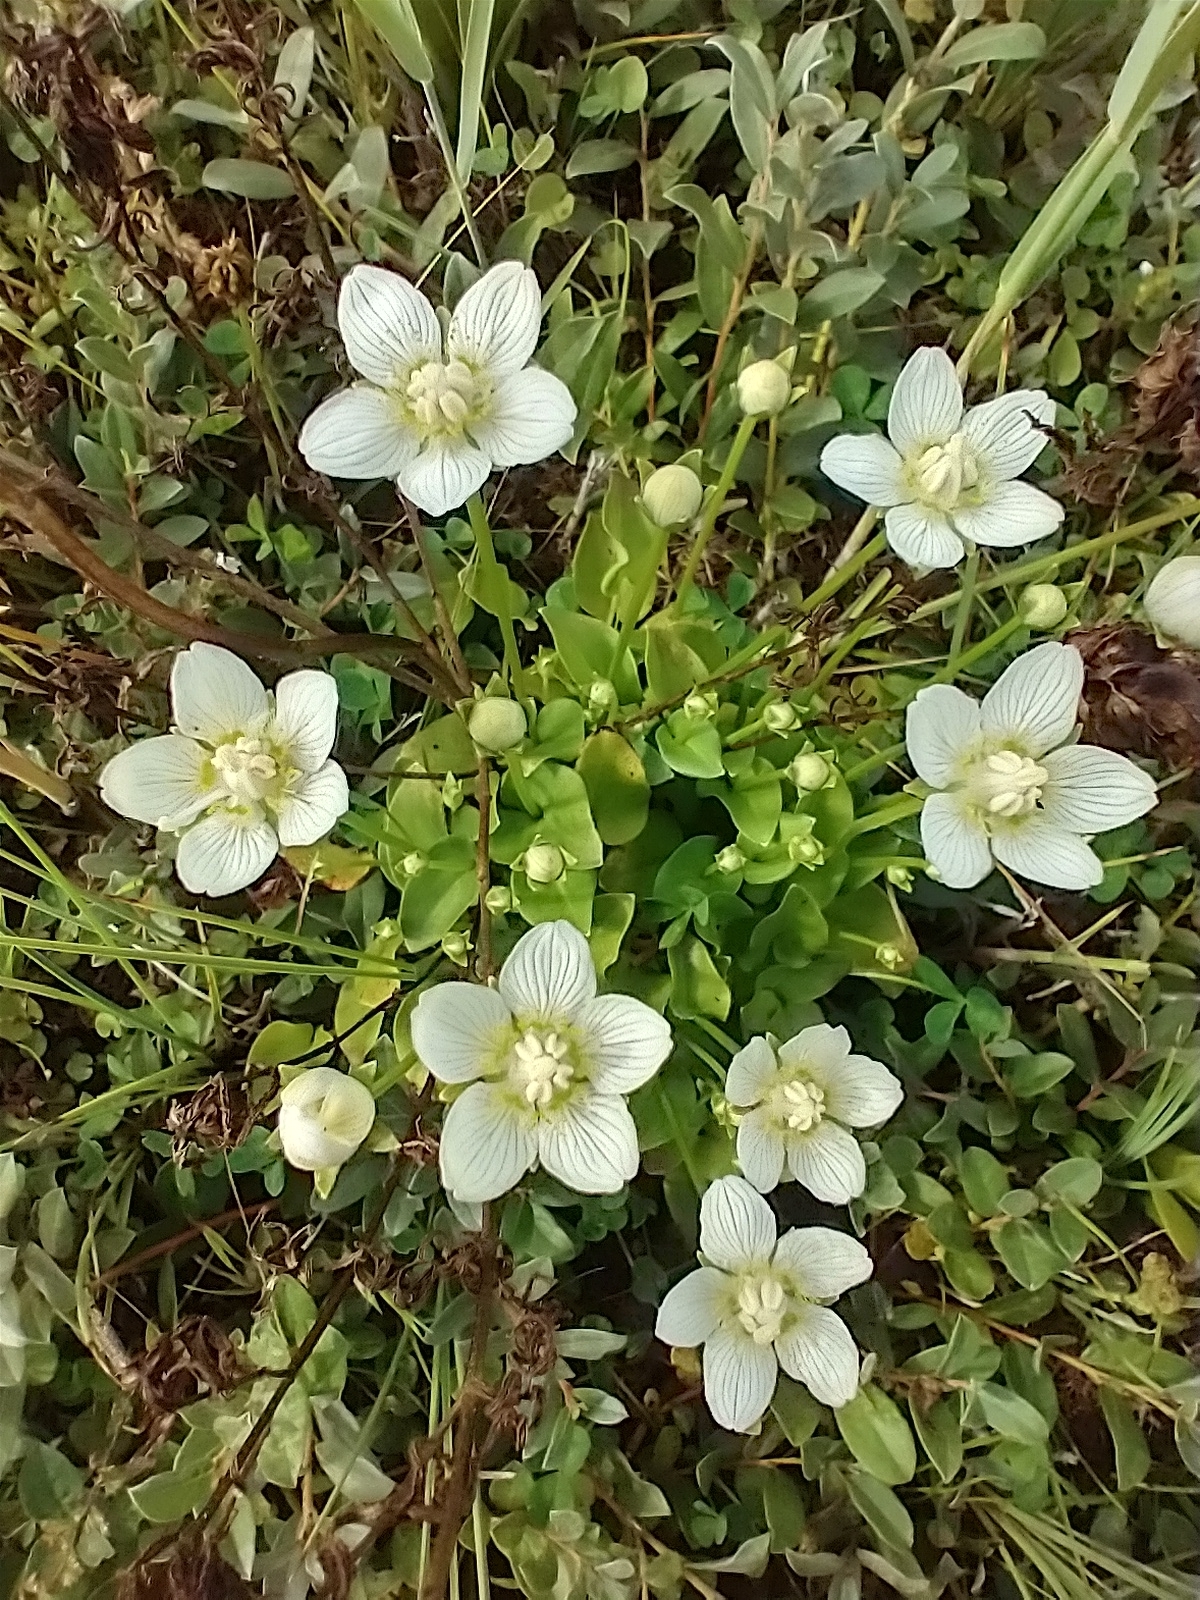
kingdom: Plantae
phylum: Tracheophyta
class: Magnoliopsida
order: Celastrales
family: Parnassiaceae
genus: Parnassia
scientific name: Parnassia palustris
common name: Grass-of-parnassus
